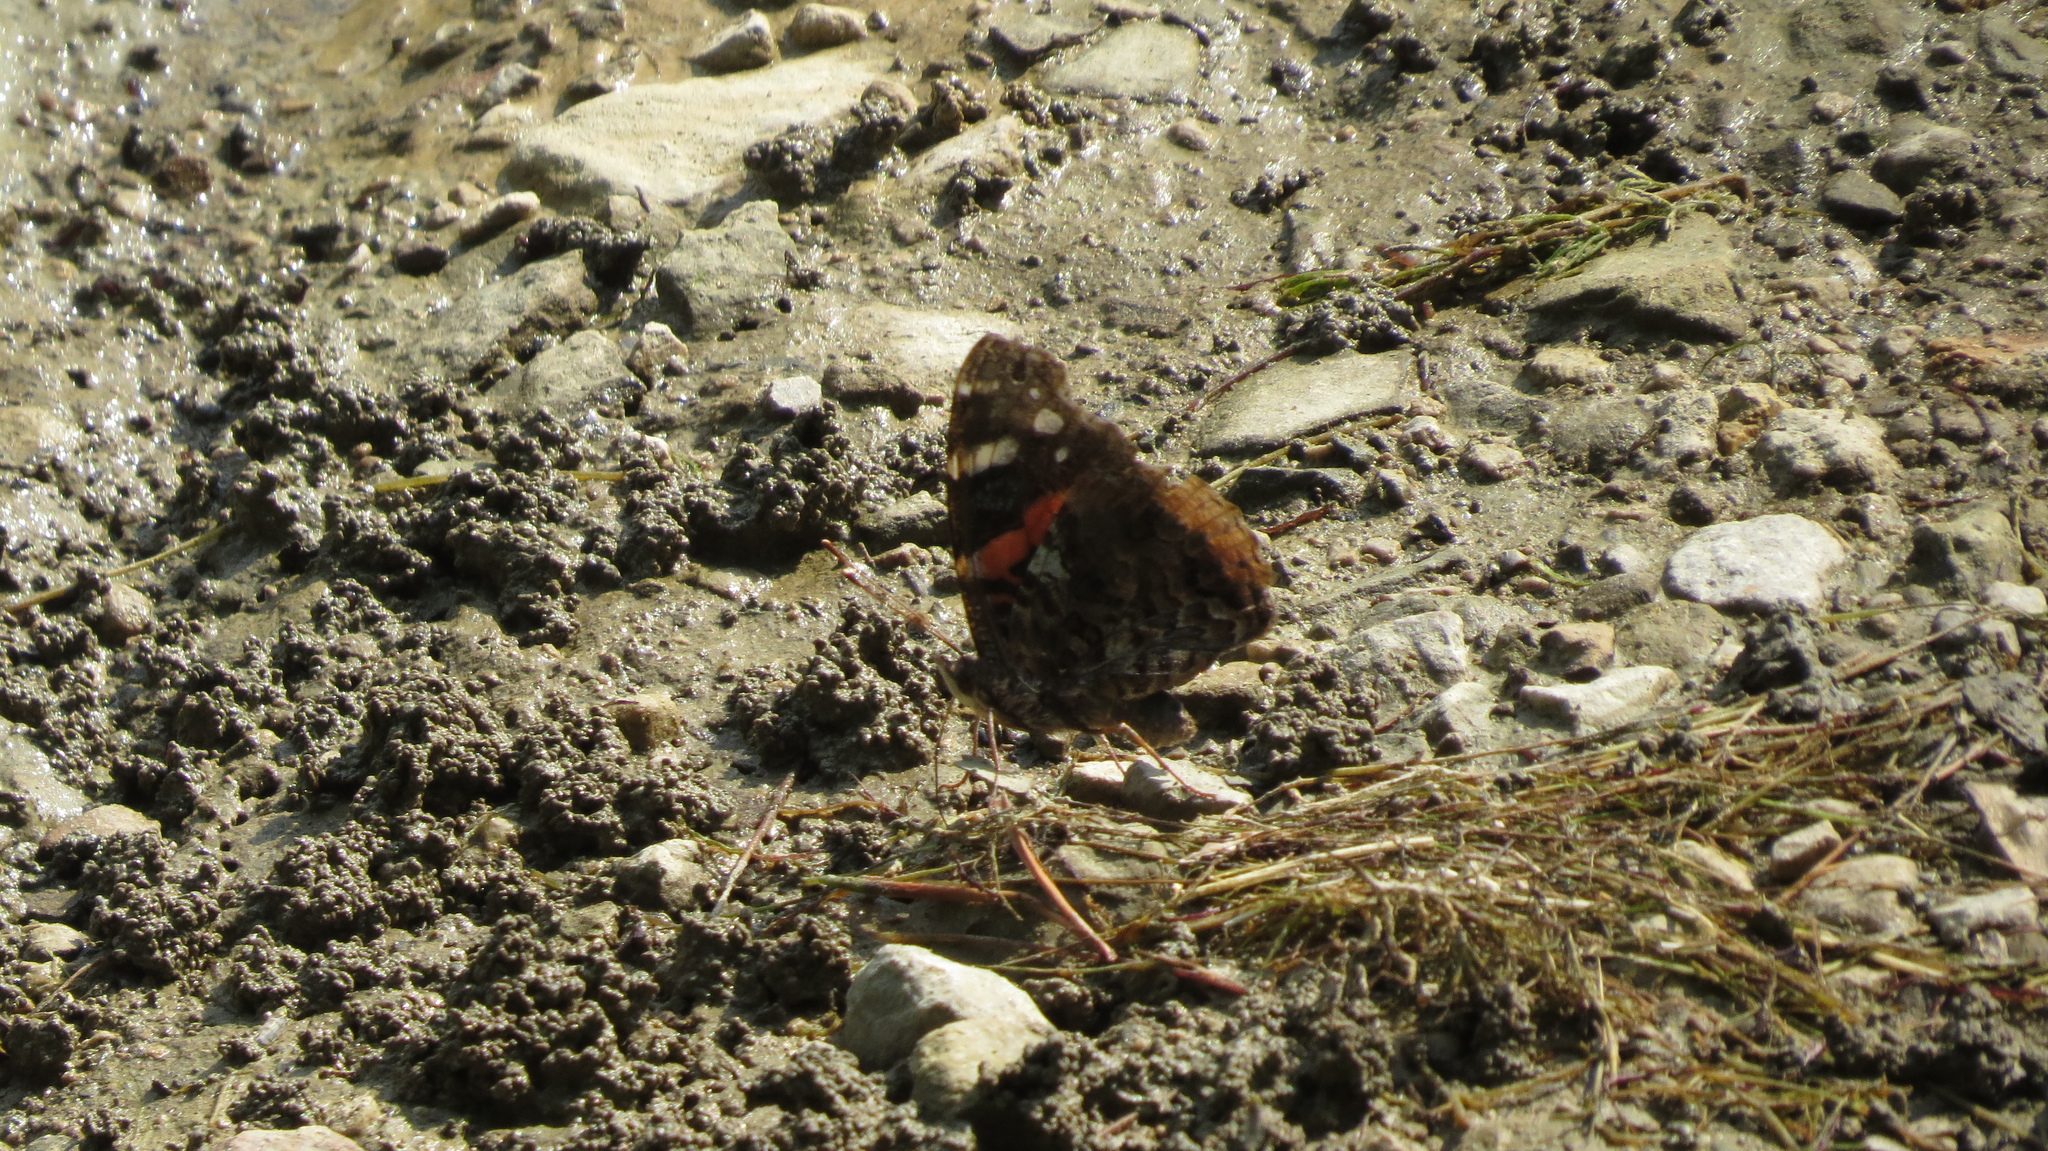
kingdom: Animalia
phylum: Arthropoda
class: Insecta
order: Lepidoptera
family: Nymphalidae
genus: Vanessa
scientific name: Vanessa atalanta
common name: Red admiral
